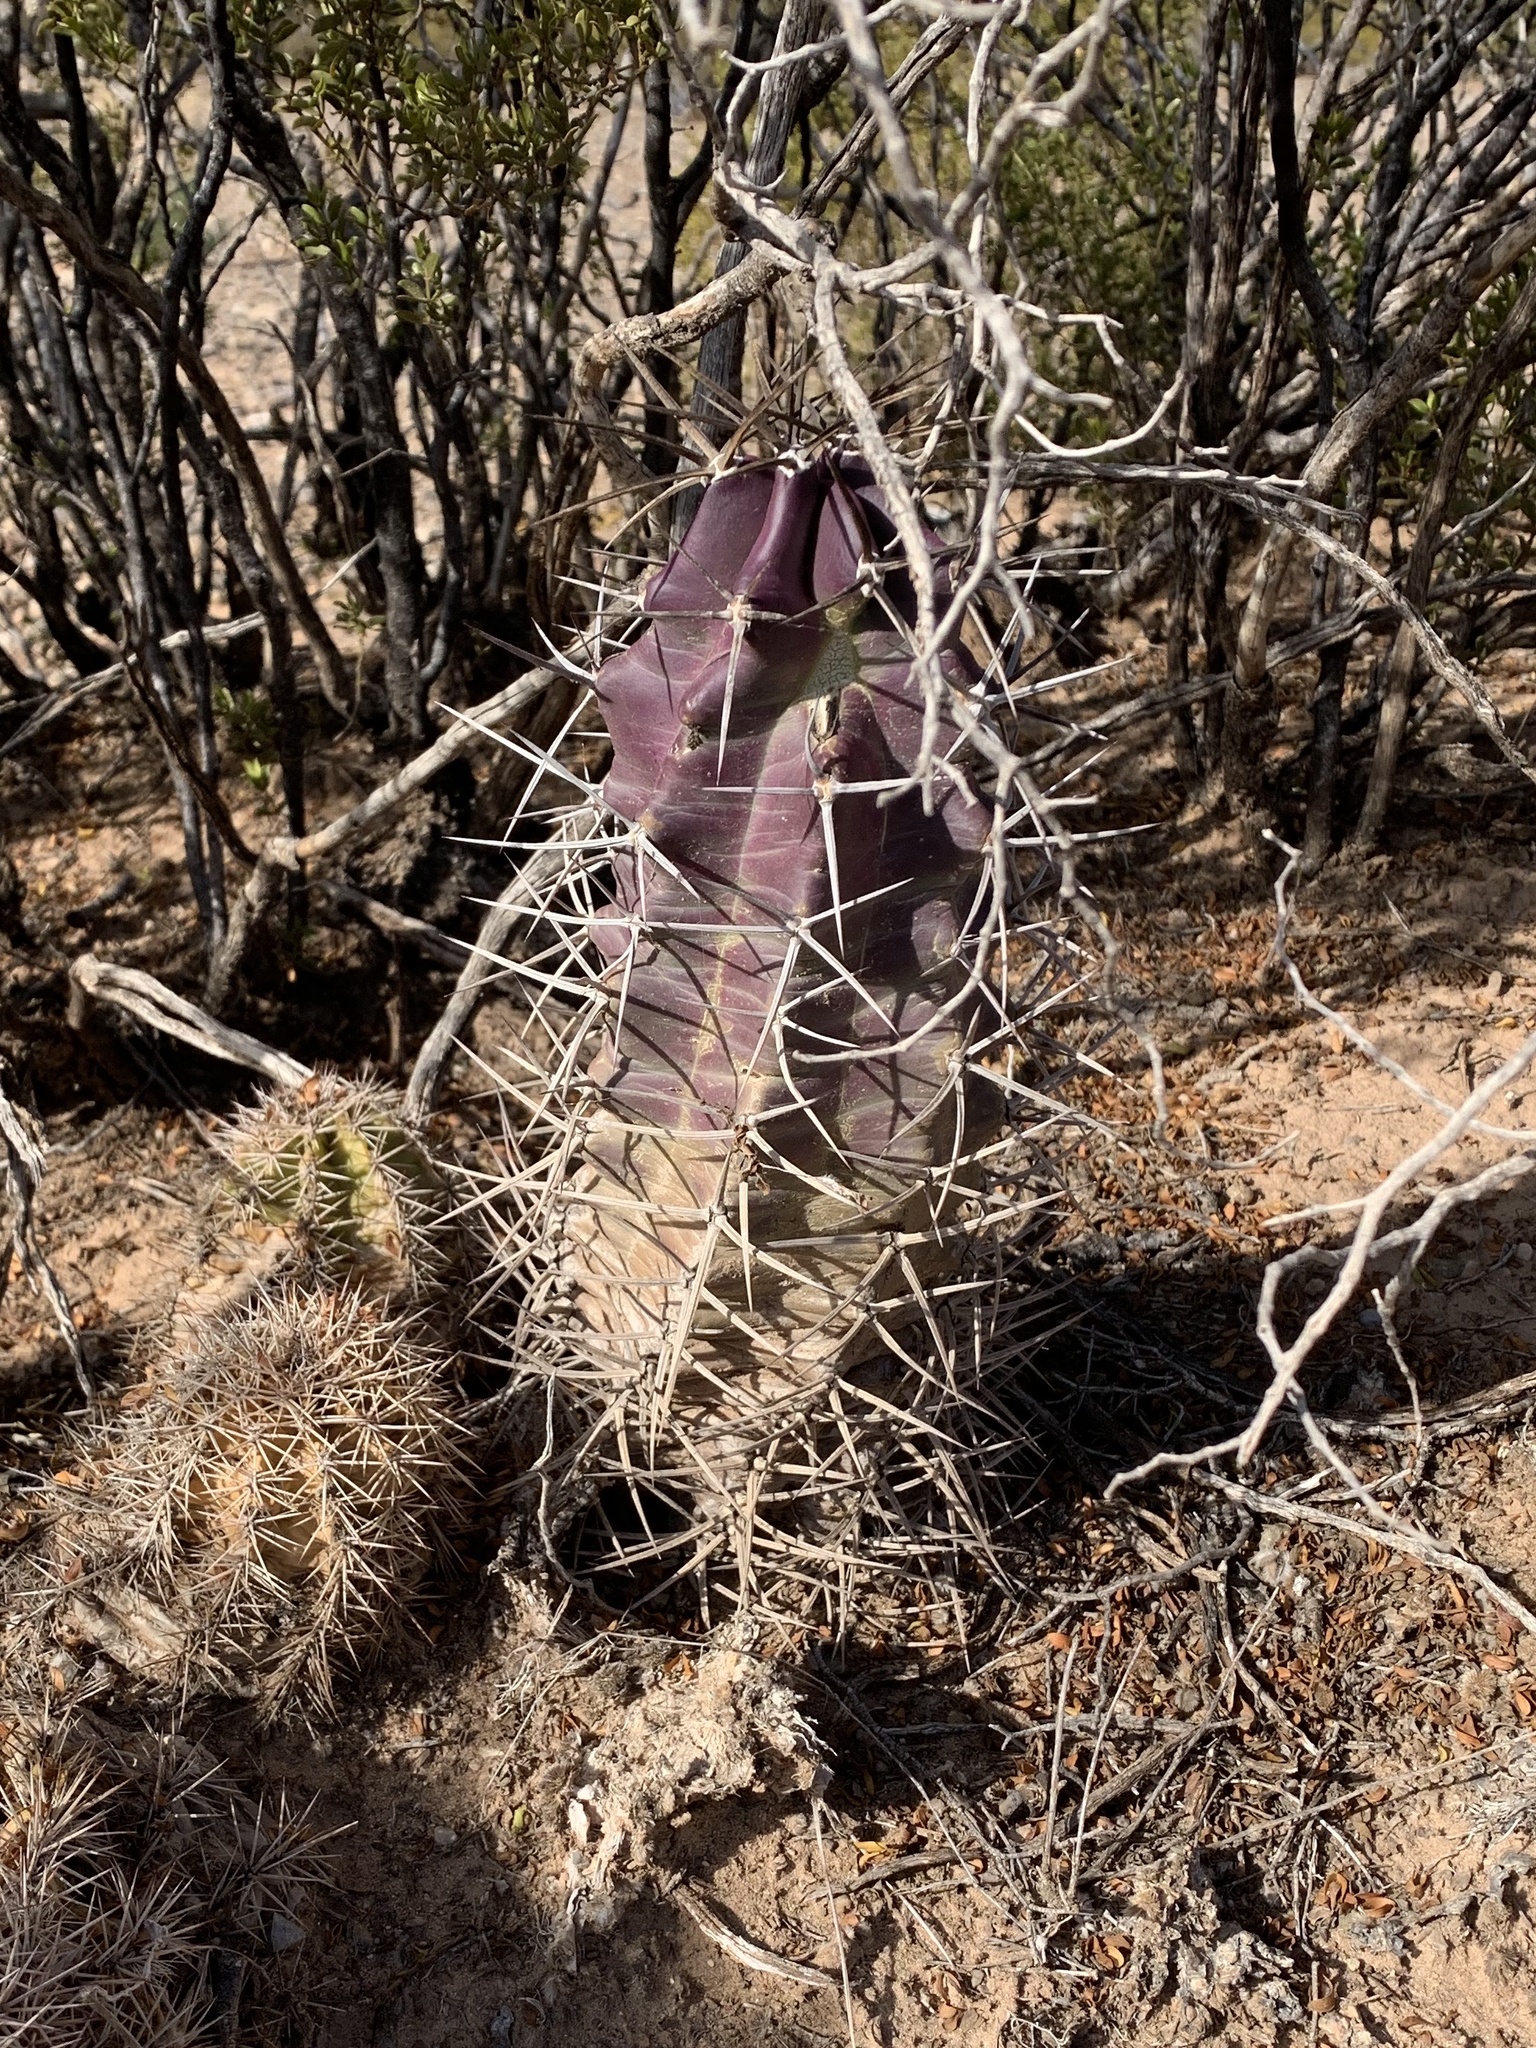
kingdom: Plantae
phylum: Tracheophyta
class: Magnoliopsida
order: Caryophyllales
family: Cactaceae
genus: Echinocereus
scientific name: Echinocereus triglochidiatus
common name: Claretcup hedgehog
